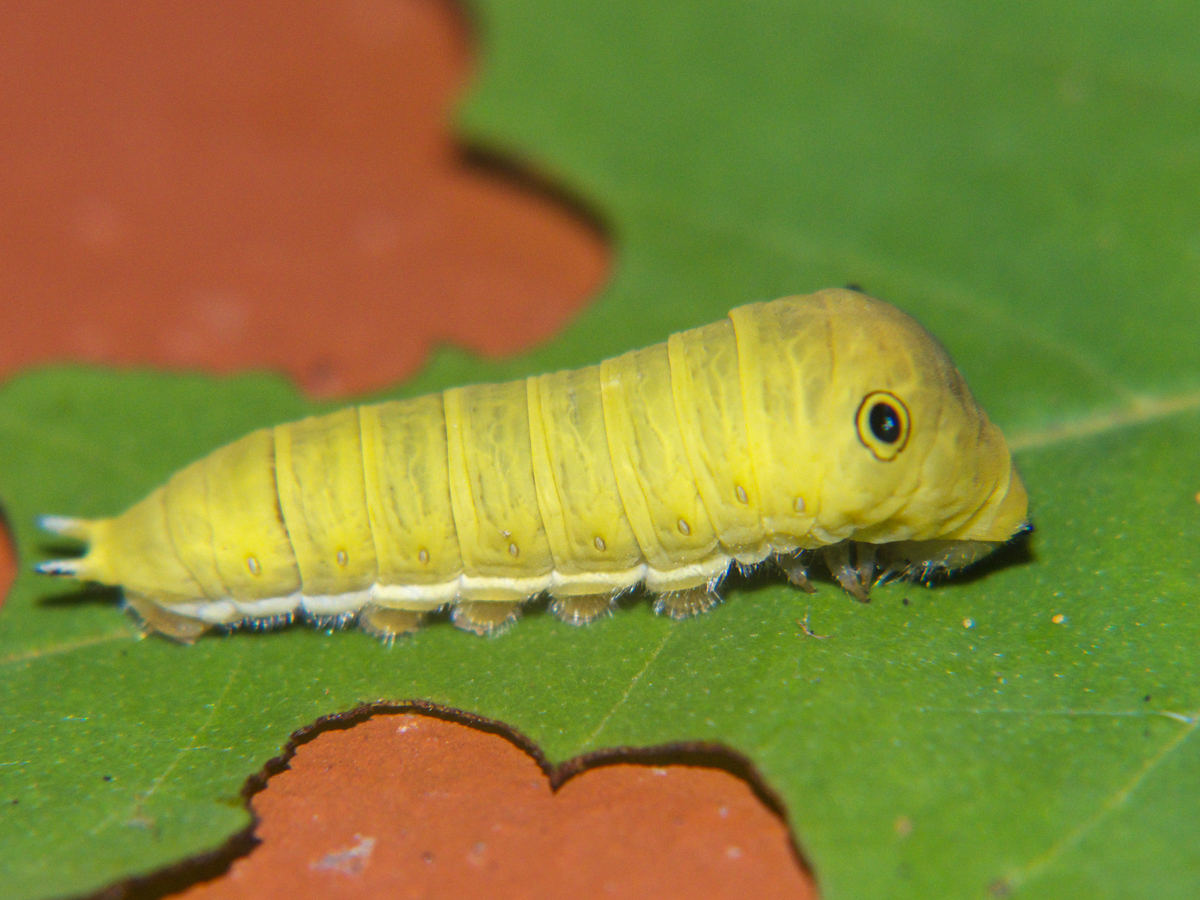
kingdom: Animalia
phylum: Arthropoda
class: Insecta
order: Lepidoptera
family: Papilionidae
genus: Graphium
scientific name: Graphium doson
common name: Common jay
